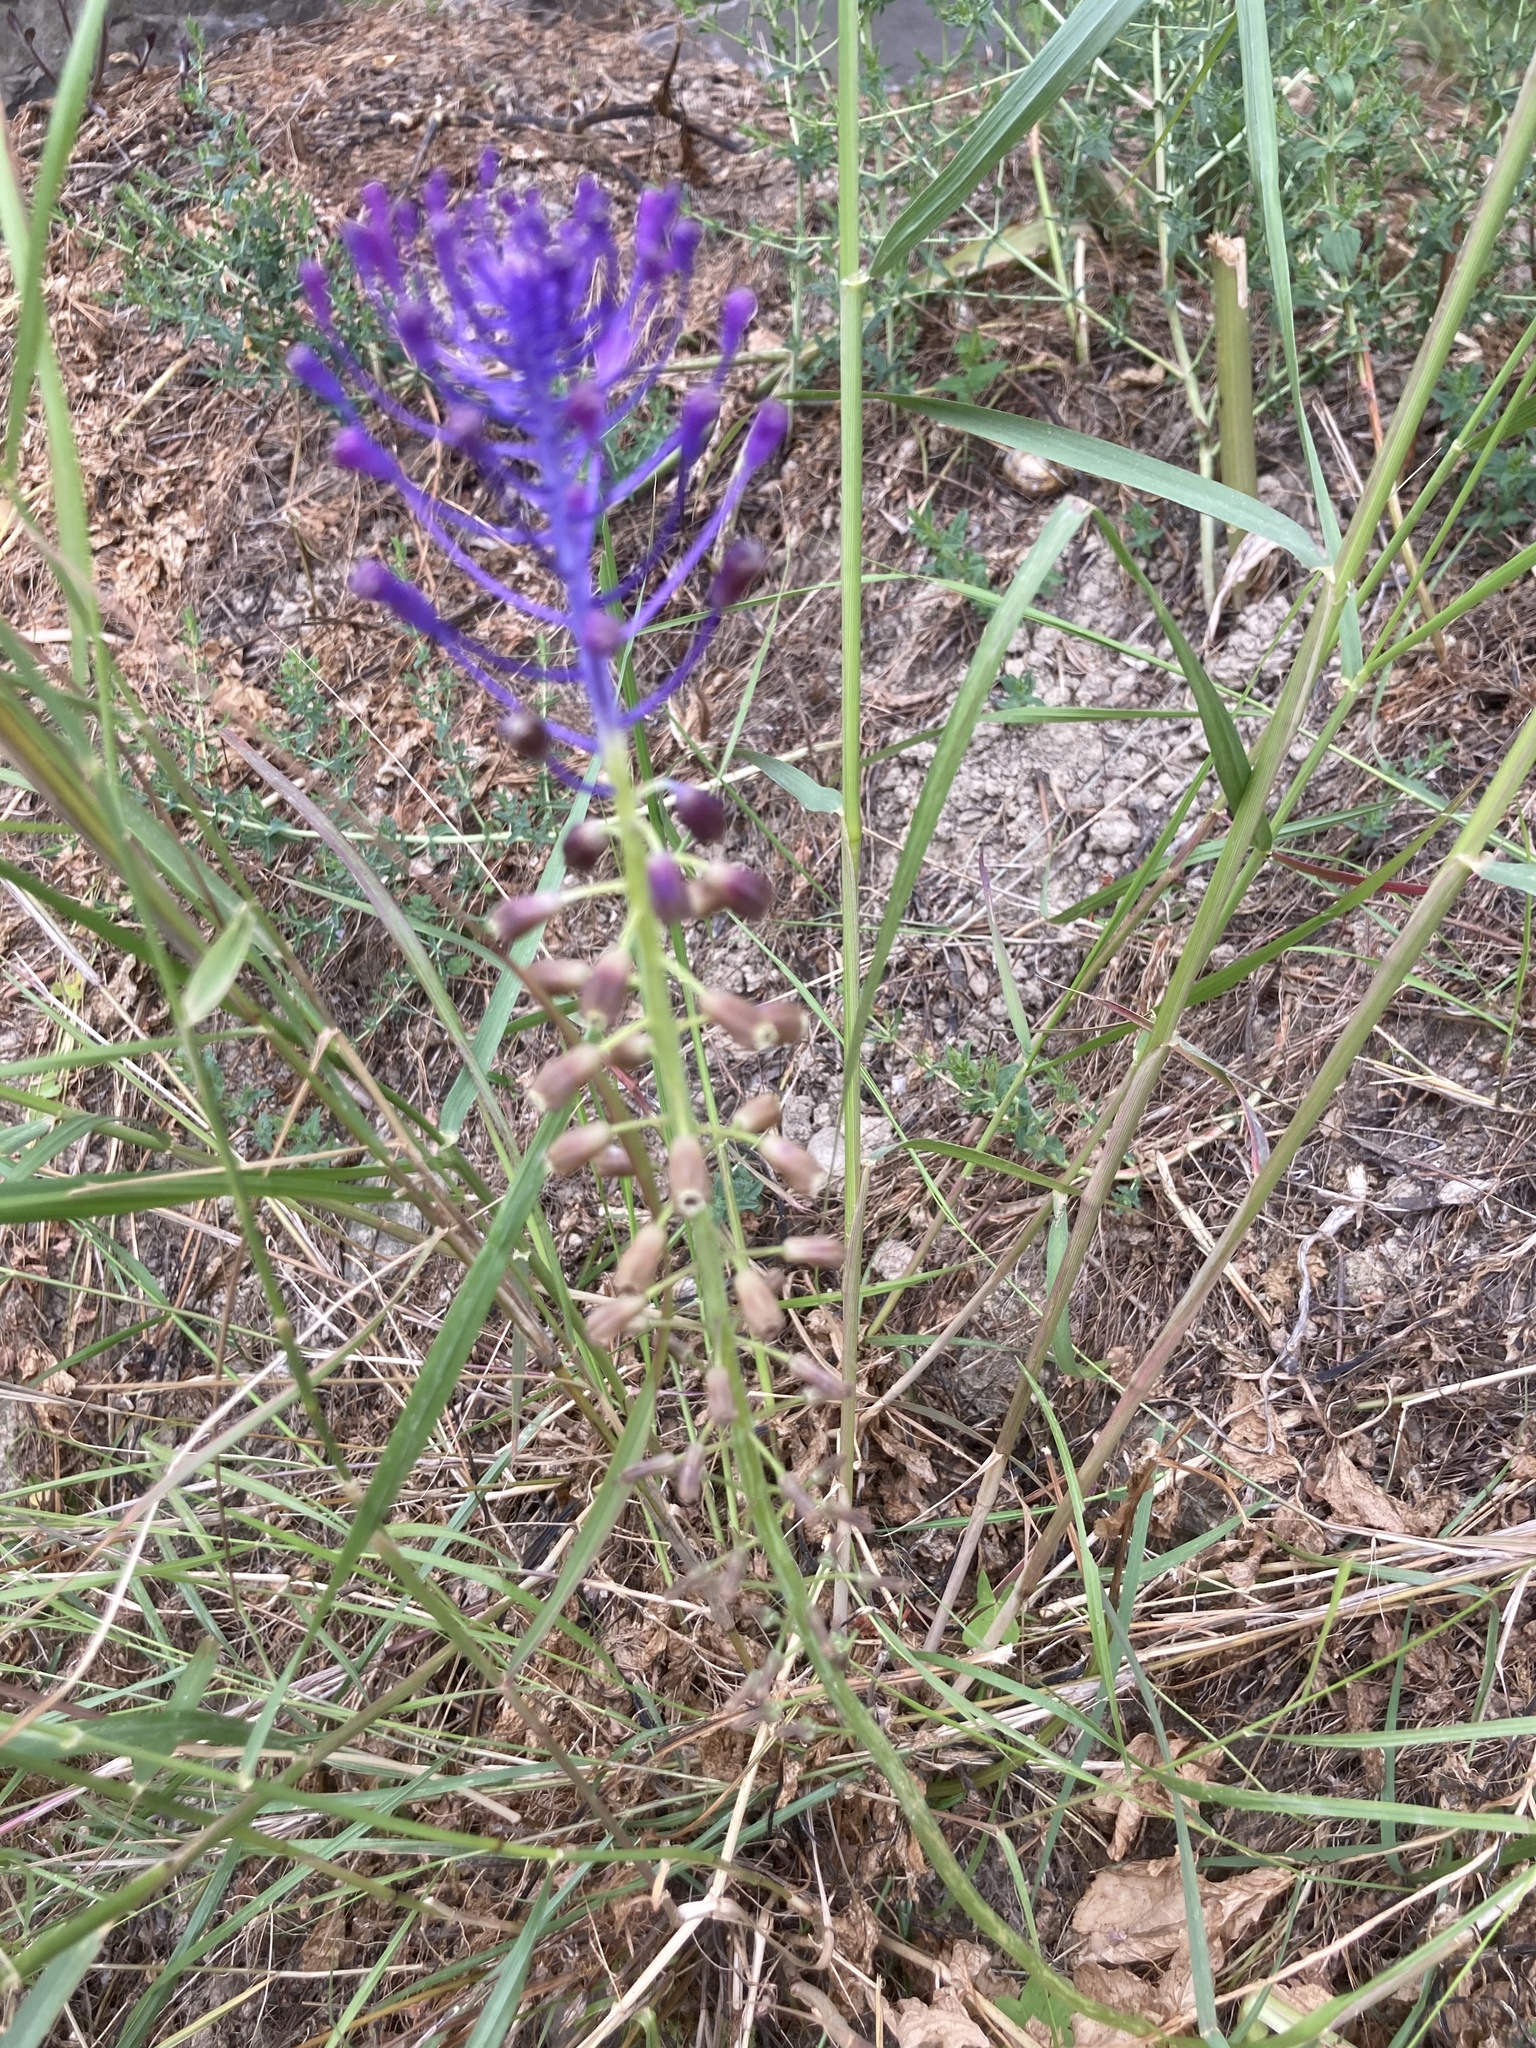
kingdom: Plantae
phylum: Tracheophyta
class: Liliopsida
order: Asparagales
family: Asparagaceae
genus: Muscari
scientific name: Muscari comosum
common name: Tassel hyacinth
